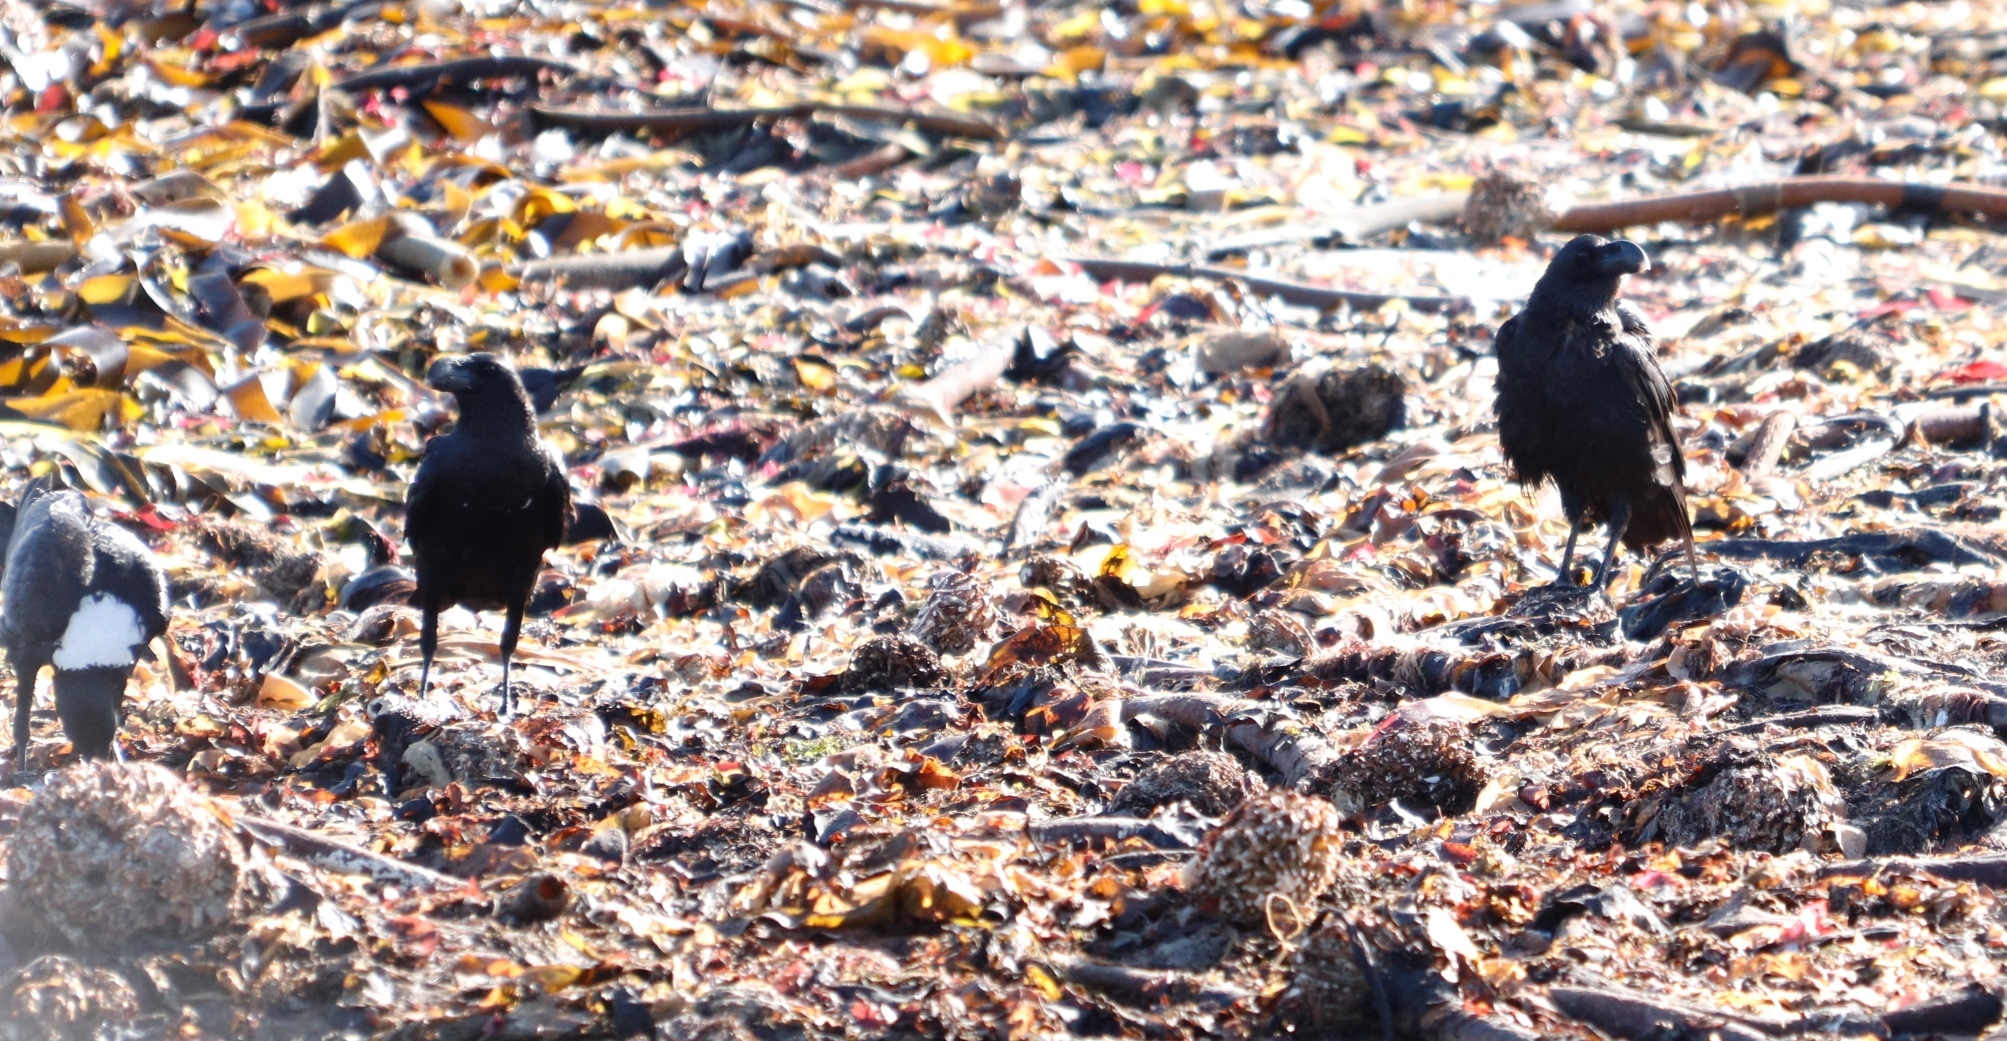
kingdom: Animalia
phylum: Chordata
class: Aves
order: Passeriformes
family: Corvidae
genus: Corvus
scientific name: Corvus albicollis
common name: White-necked raven
